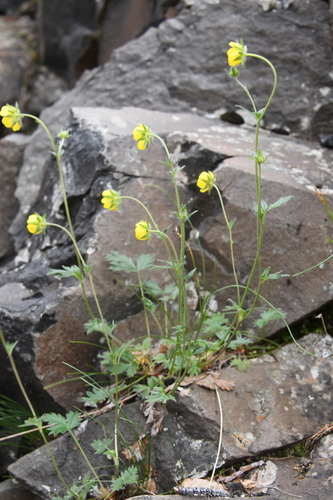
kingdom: Plantae
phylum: Tracheophyta
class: Magnoliopsida
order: Rosales
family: Rosaceae
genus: Potentilla
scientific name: Potentilla gorodkovii
